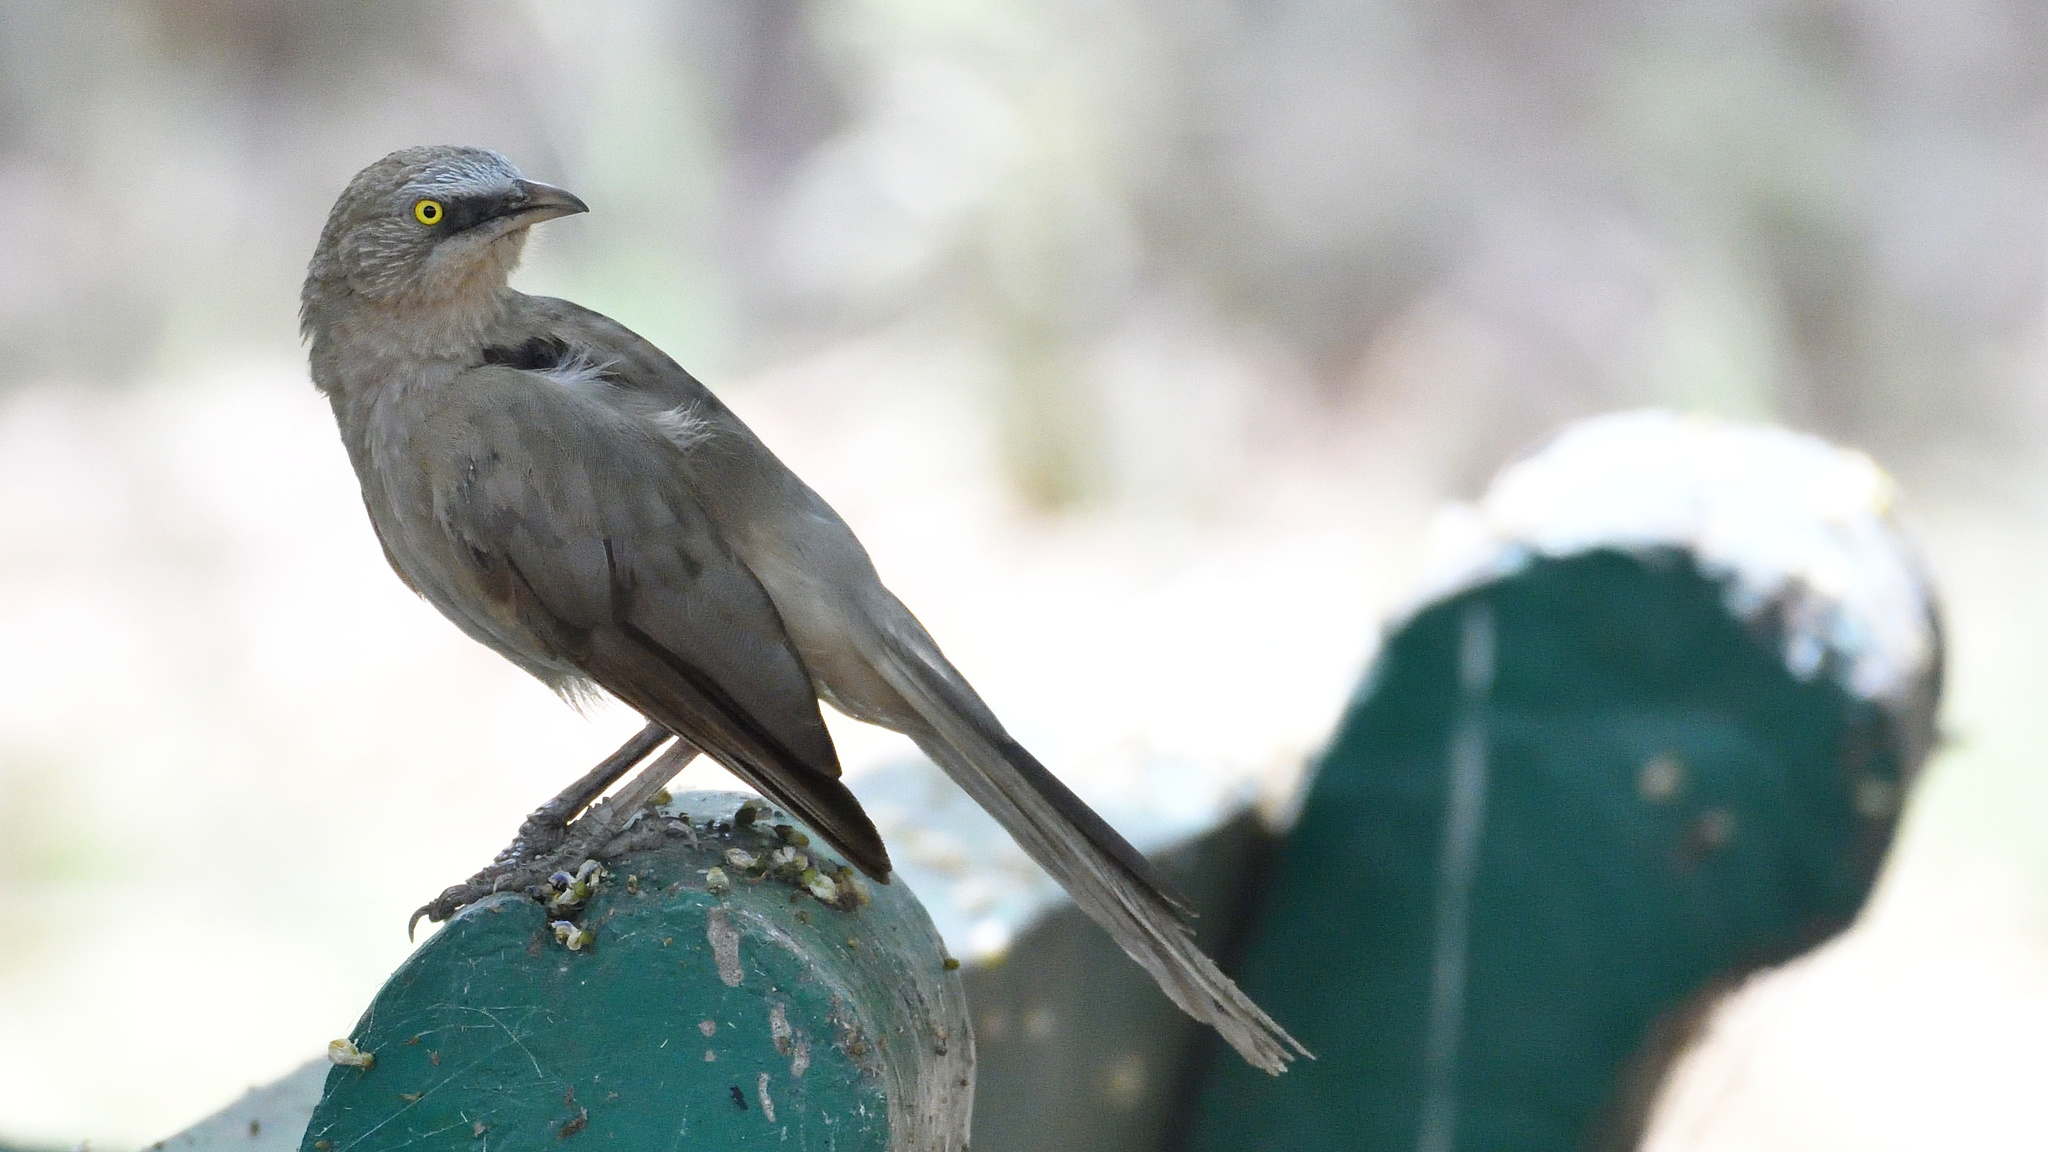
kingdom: Animalia
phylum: Chordata
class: Aves
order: Passeriformes
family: Leiothrichidae
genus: Turdoides
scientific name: Turdoides malcolmi
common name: Large grey babbler
